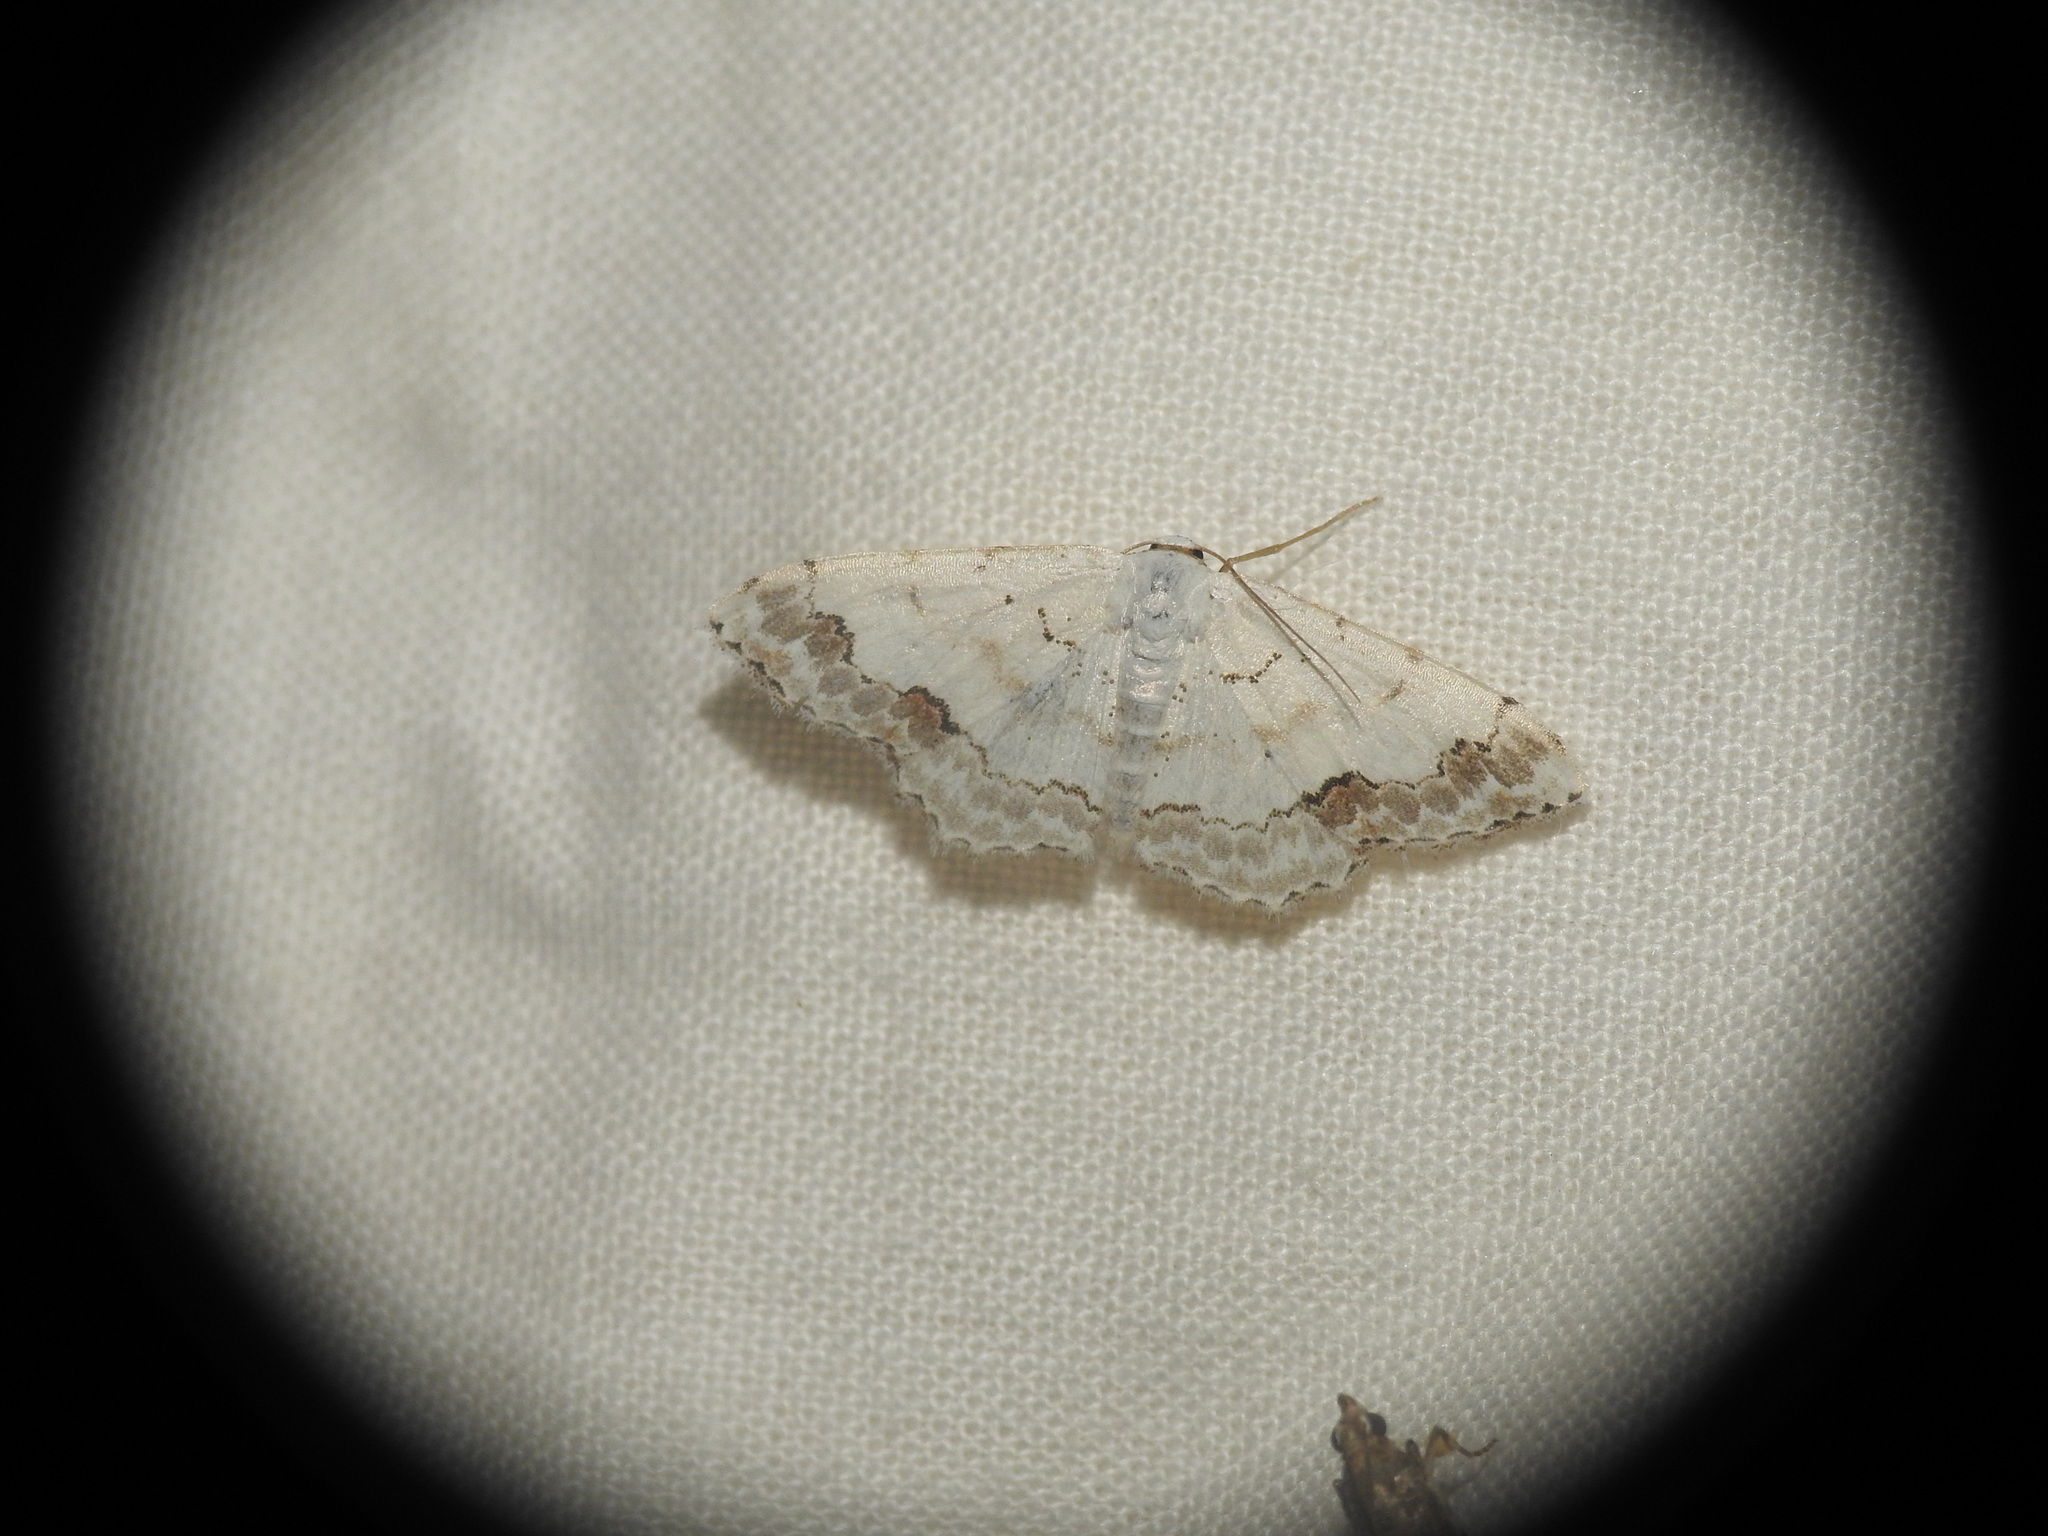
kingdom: Animalia
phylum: Arthropoda
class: Insecta
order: Lepidoptera
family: Geometridae
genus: Scopula
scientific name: Scopula decorata
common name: Middle lace border
